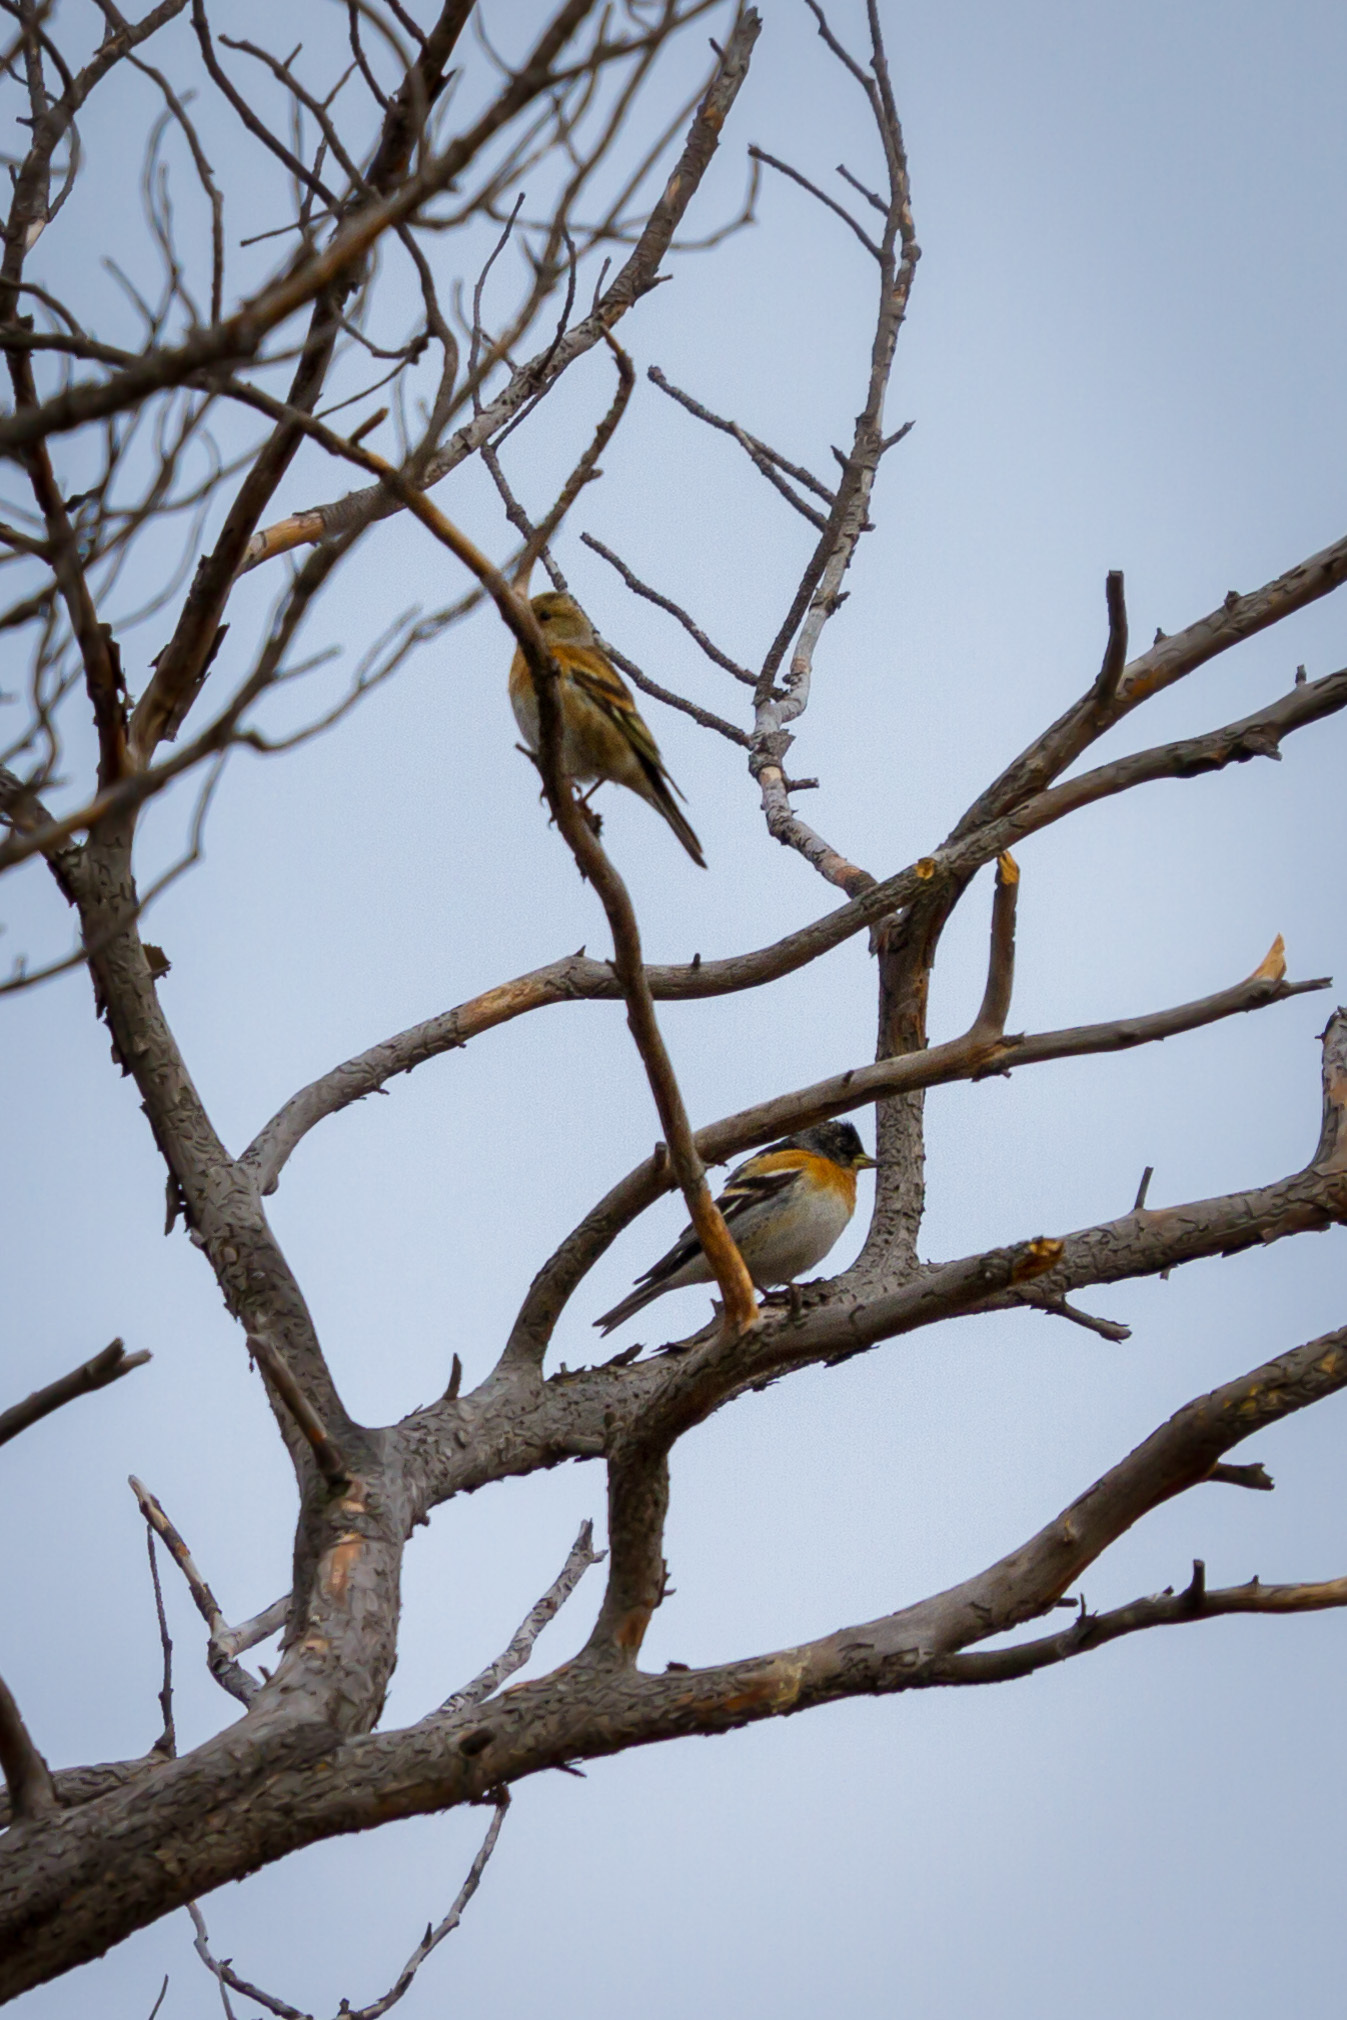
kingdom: Animalia
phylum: Chordata
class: Aves
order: Passeriformes
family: Fringillidae
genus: Fringilla
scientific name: Fringilla montifringilla
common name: Brambling
